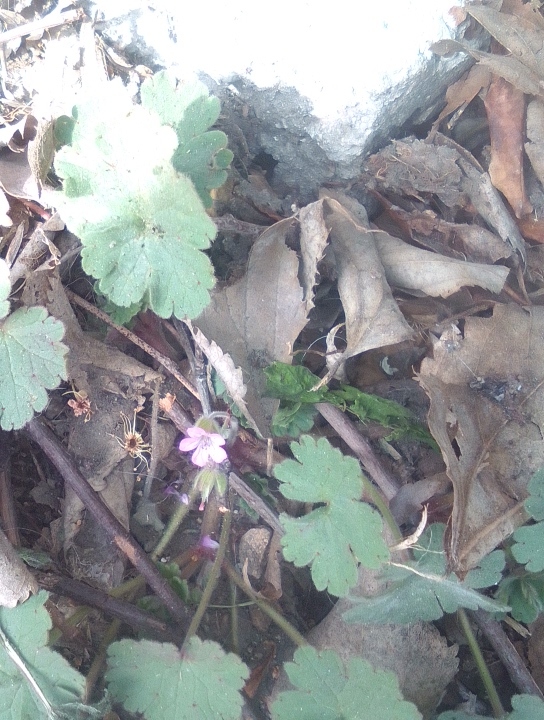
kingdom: Plantae
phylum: Tracheophyta
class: Magnoliopsida
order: Geraniales
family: Geraniaceae
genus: Geranium
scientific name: Geranium rotundifolium
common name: Round-leaved crane's-bill
